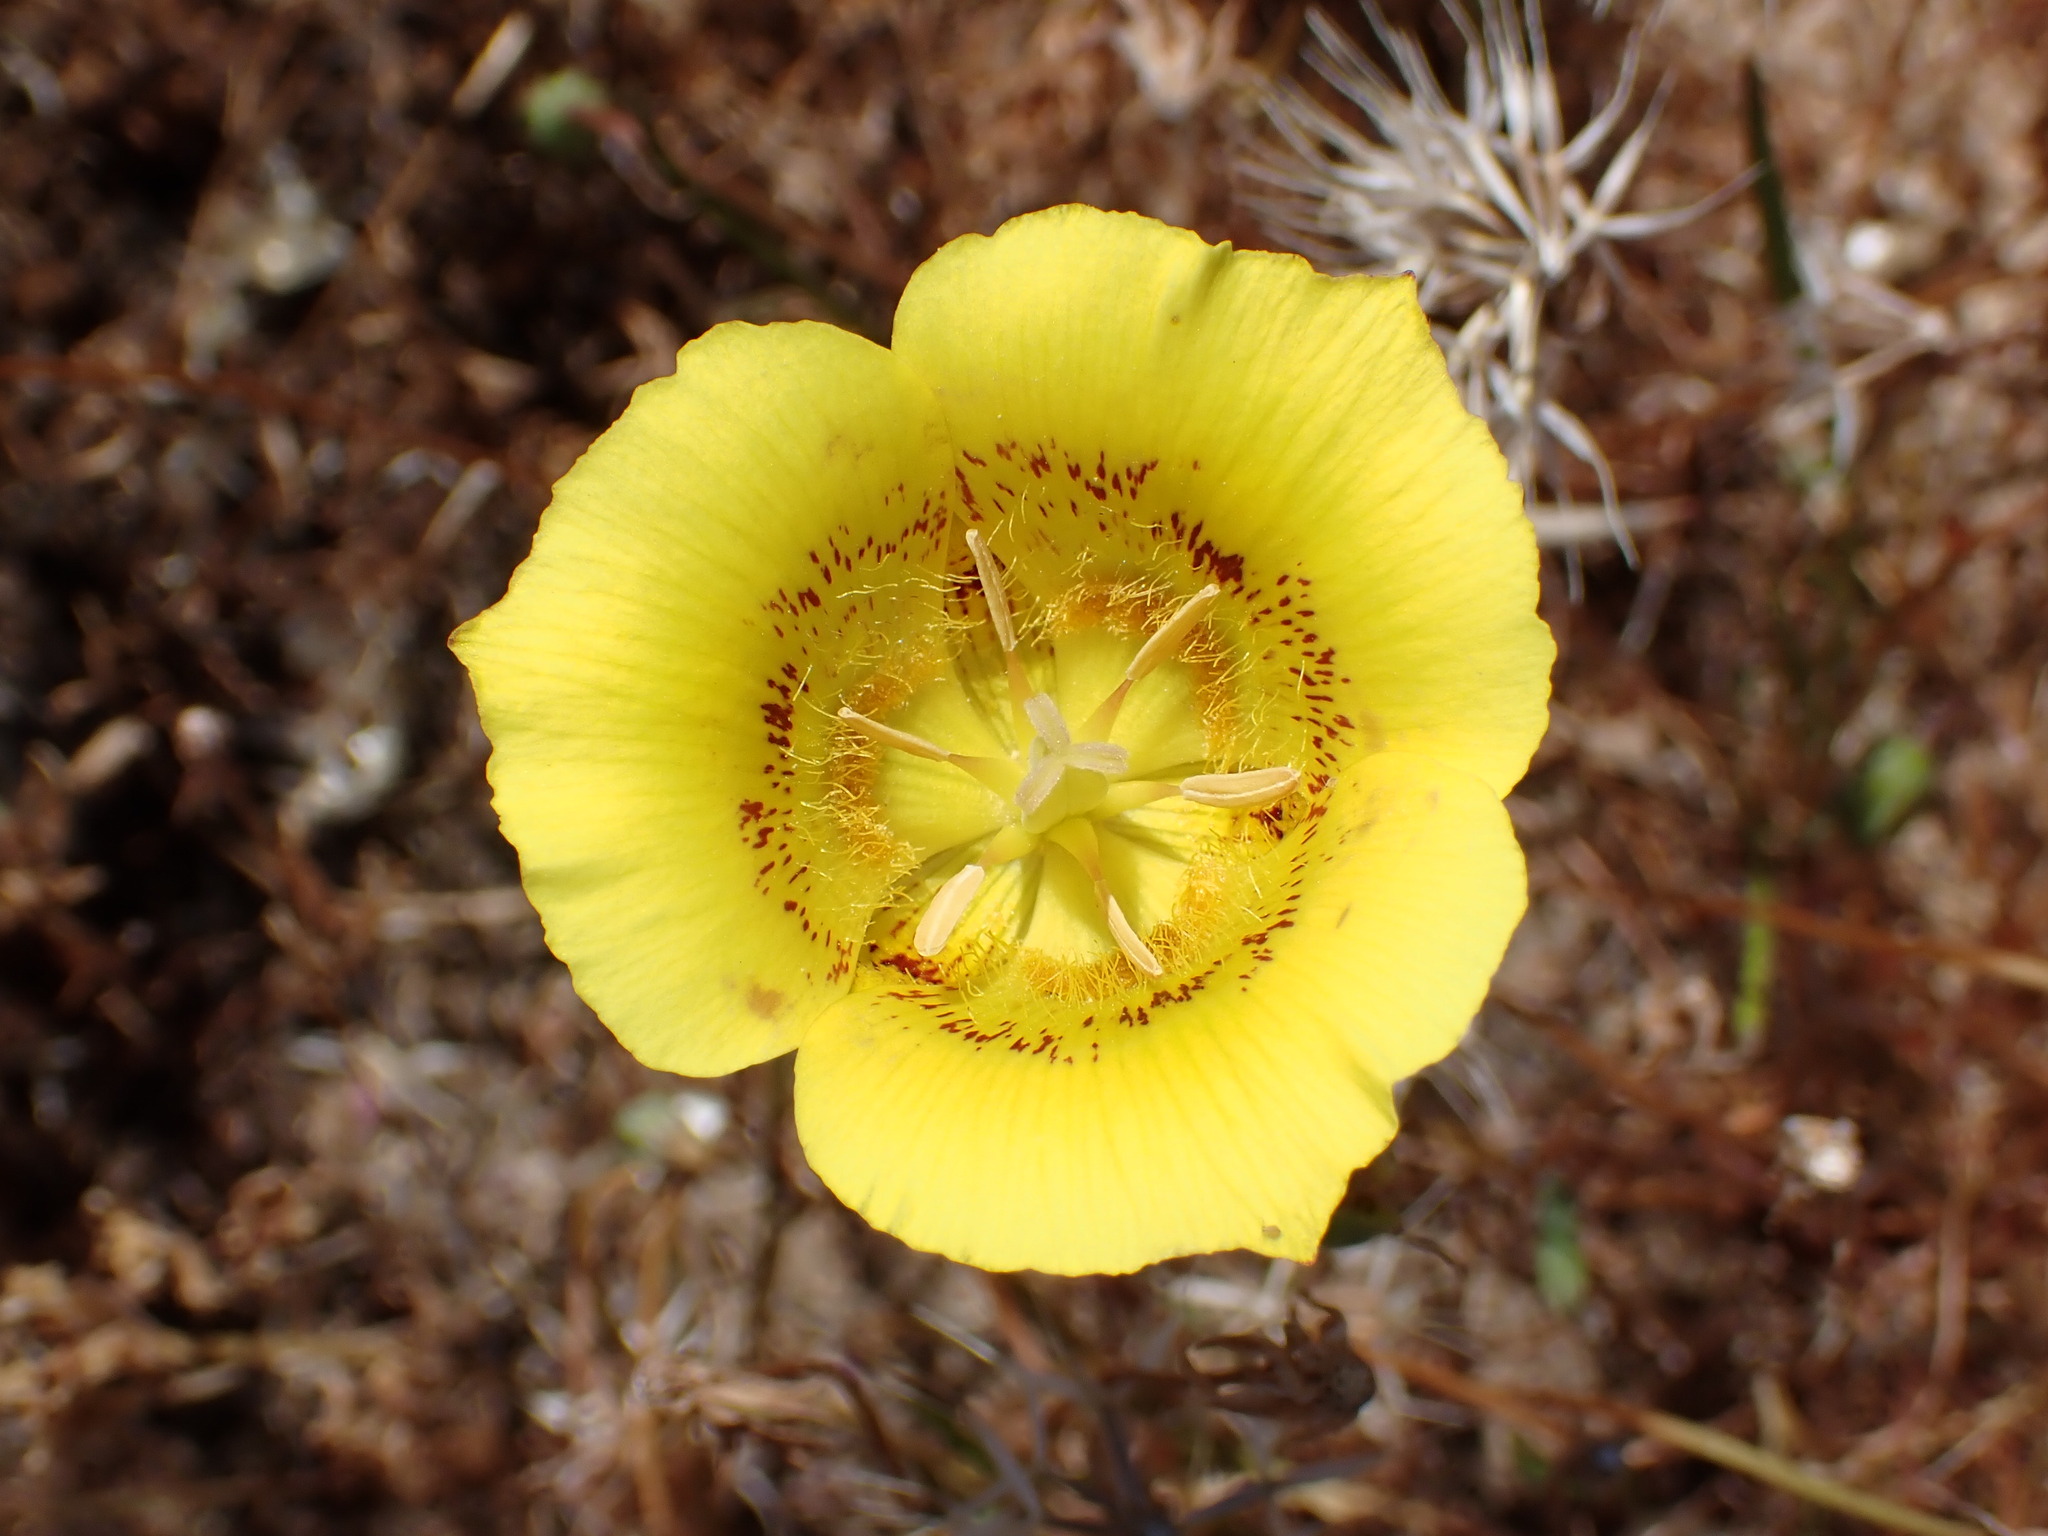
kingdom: Plantae
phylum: Tracheophyta
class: Liliopsida
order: Liliales
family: Liliaceae
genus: Calochortus
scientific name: Calochortus luteus
